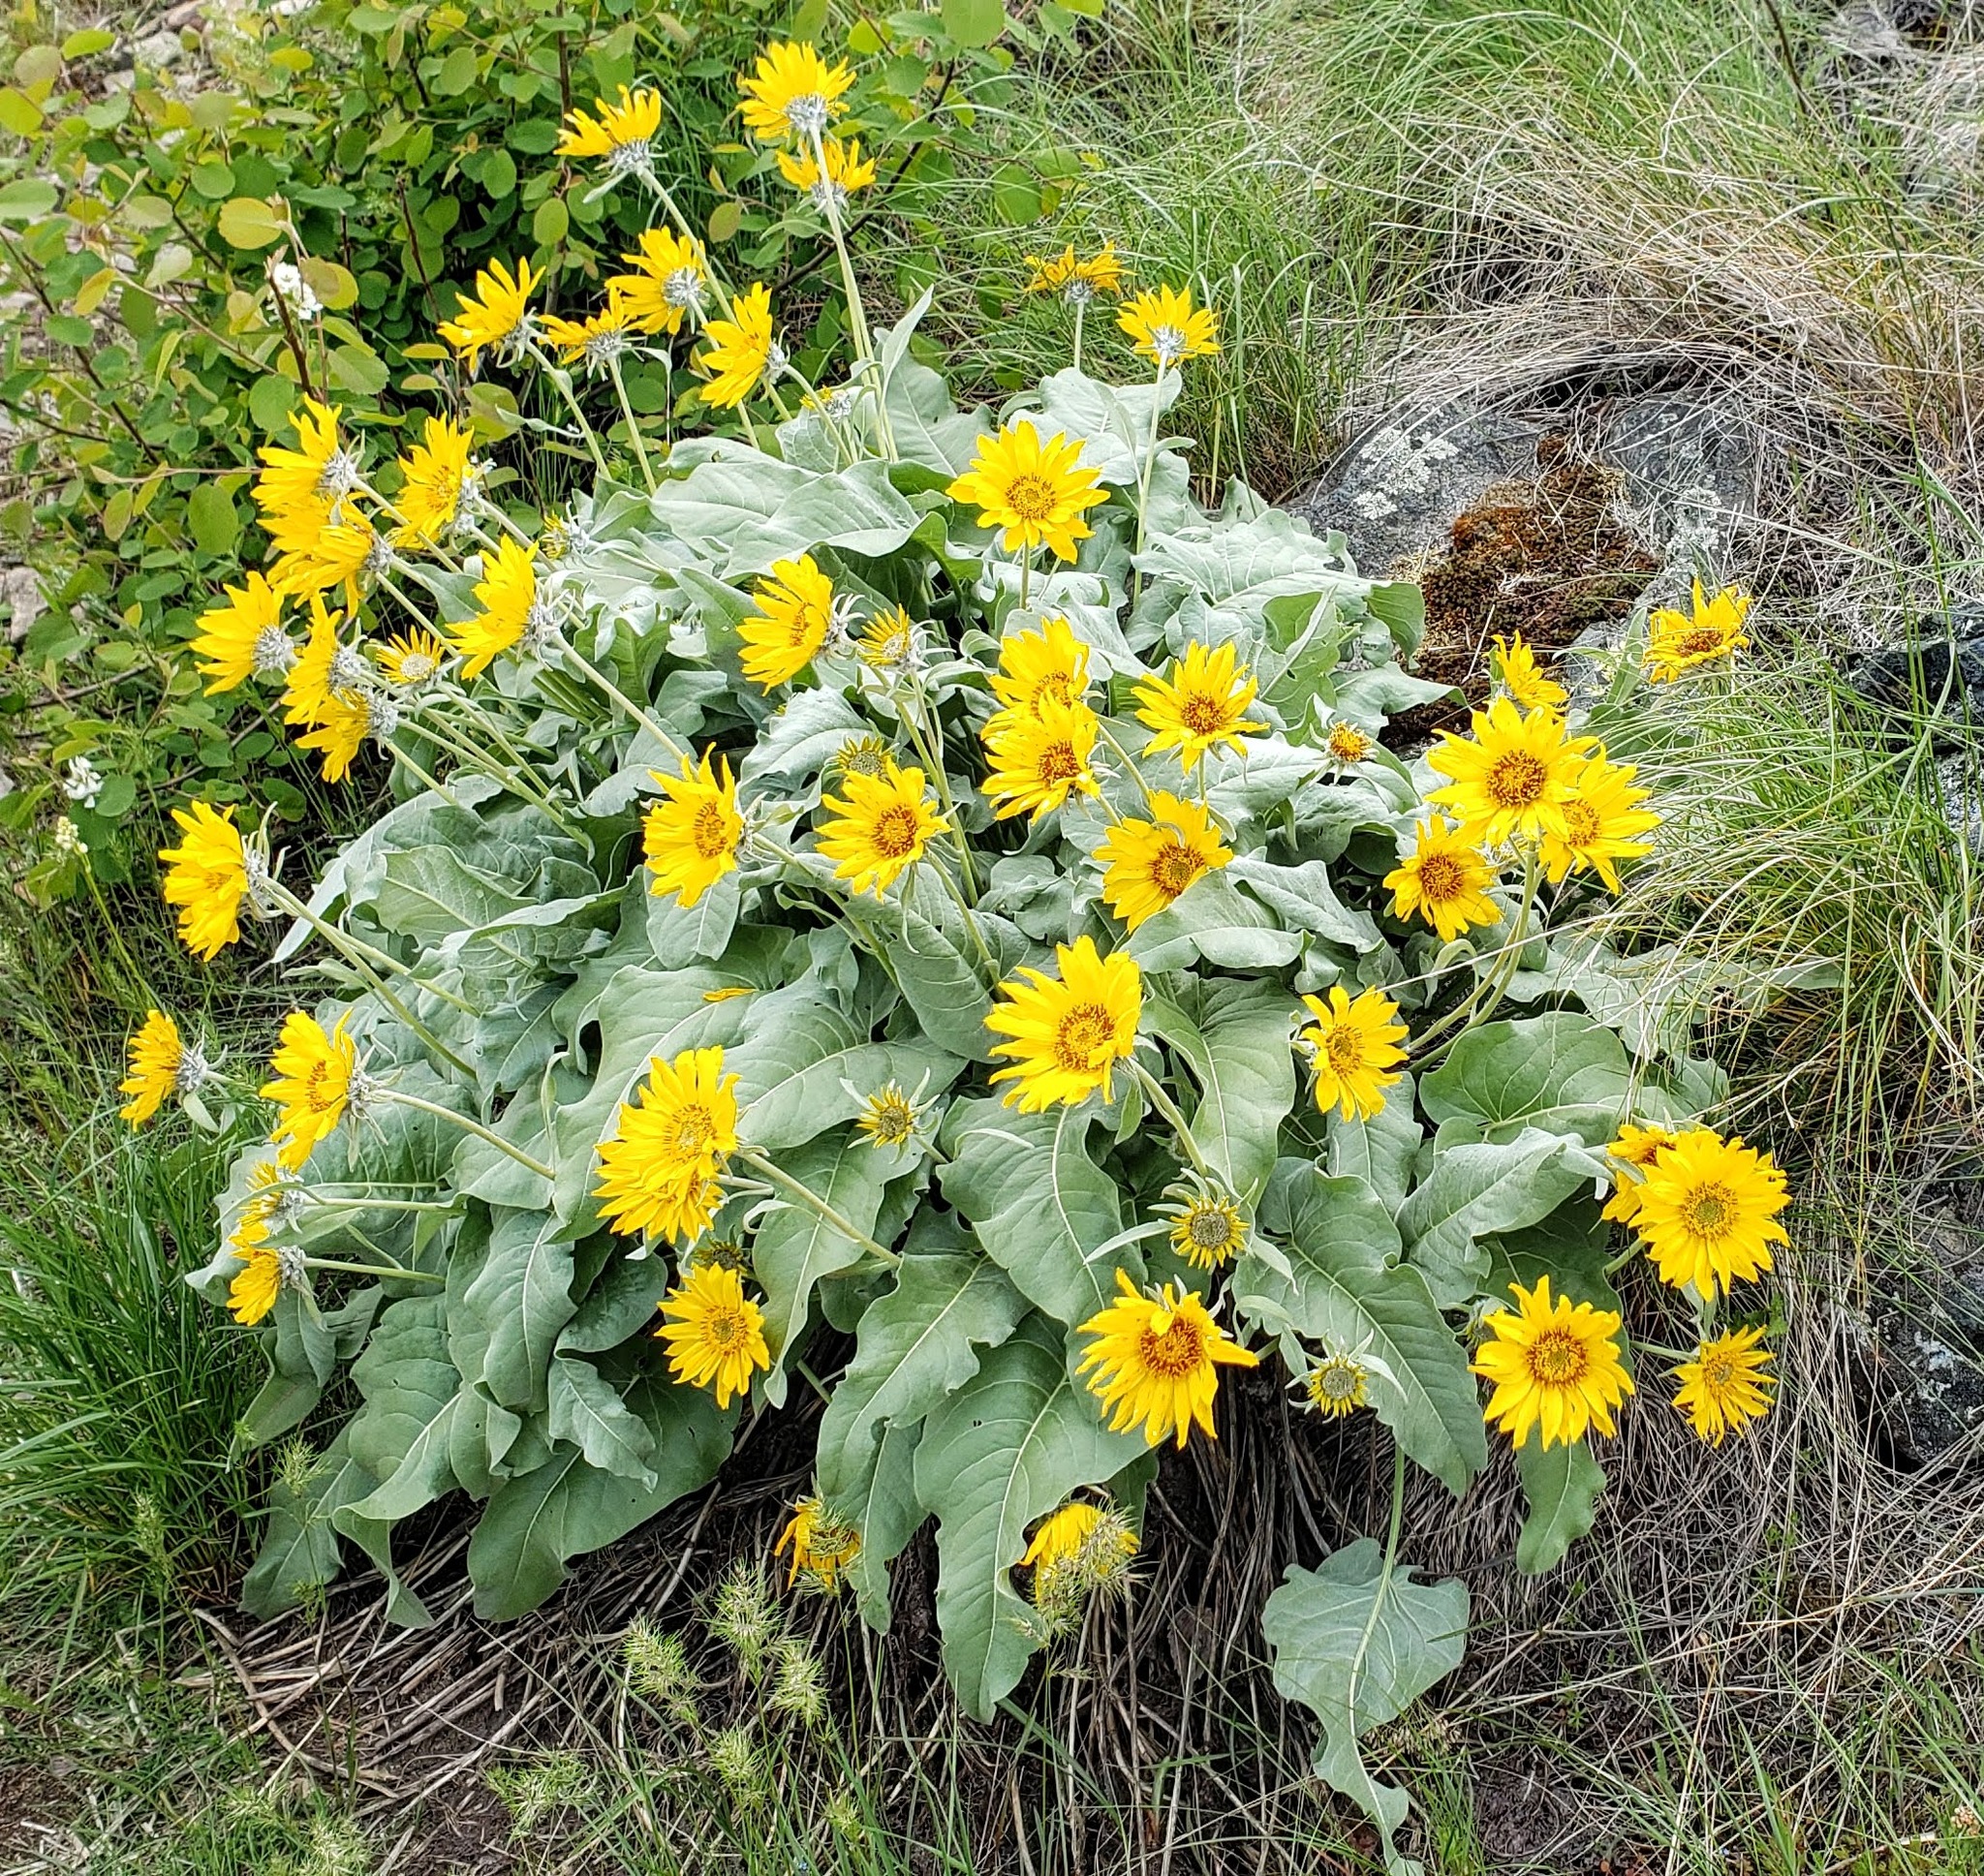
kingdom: Plantae
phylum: Tracheophyta
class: Magnoliopsida
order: Asterales
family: Asteraceae
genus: Wyethia
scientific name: Wyethia sagittata
